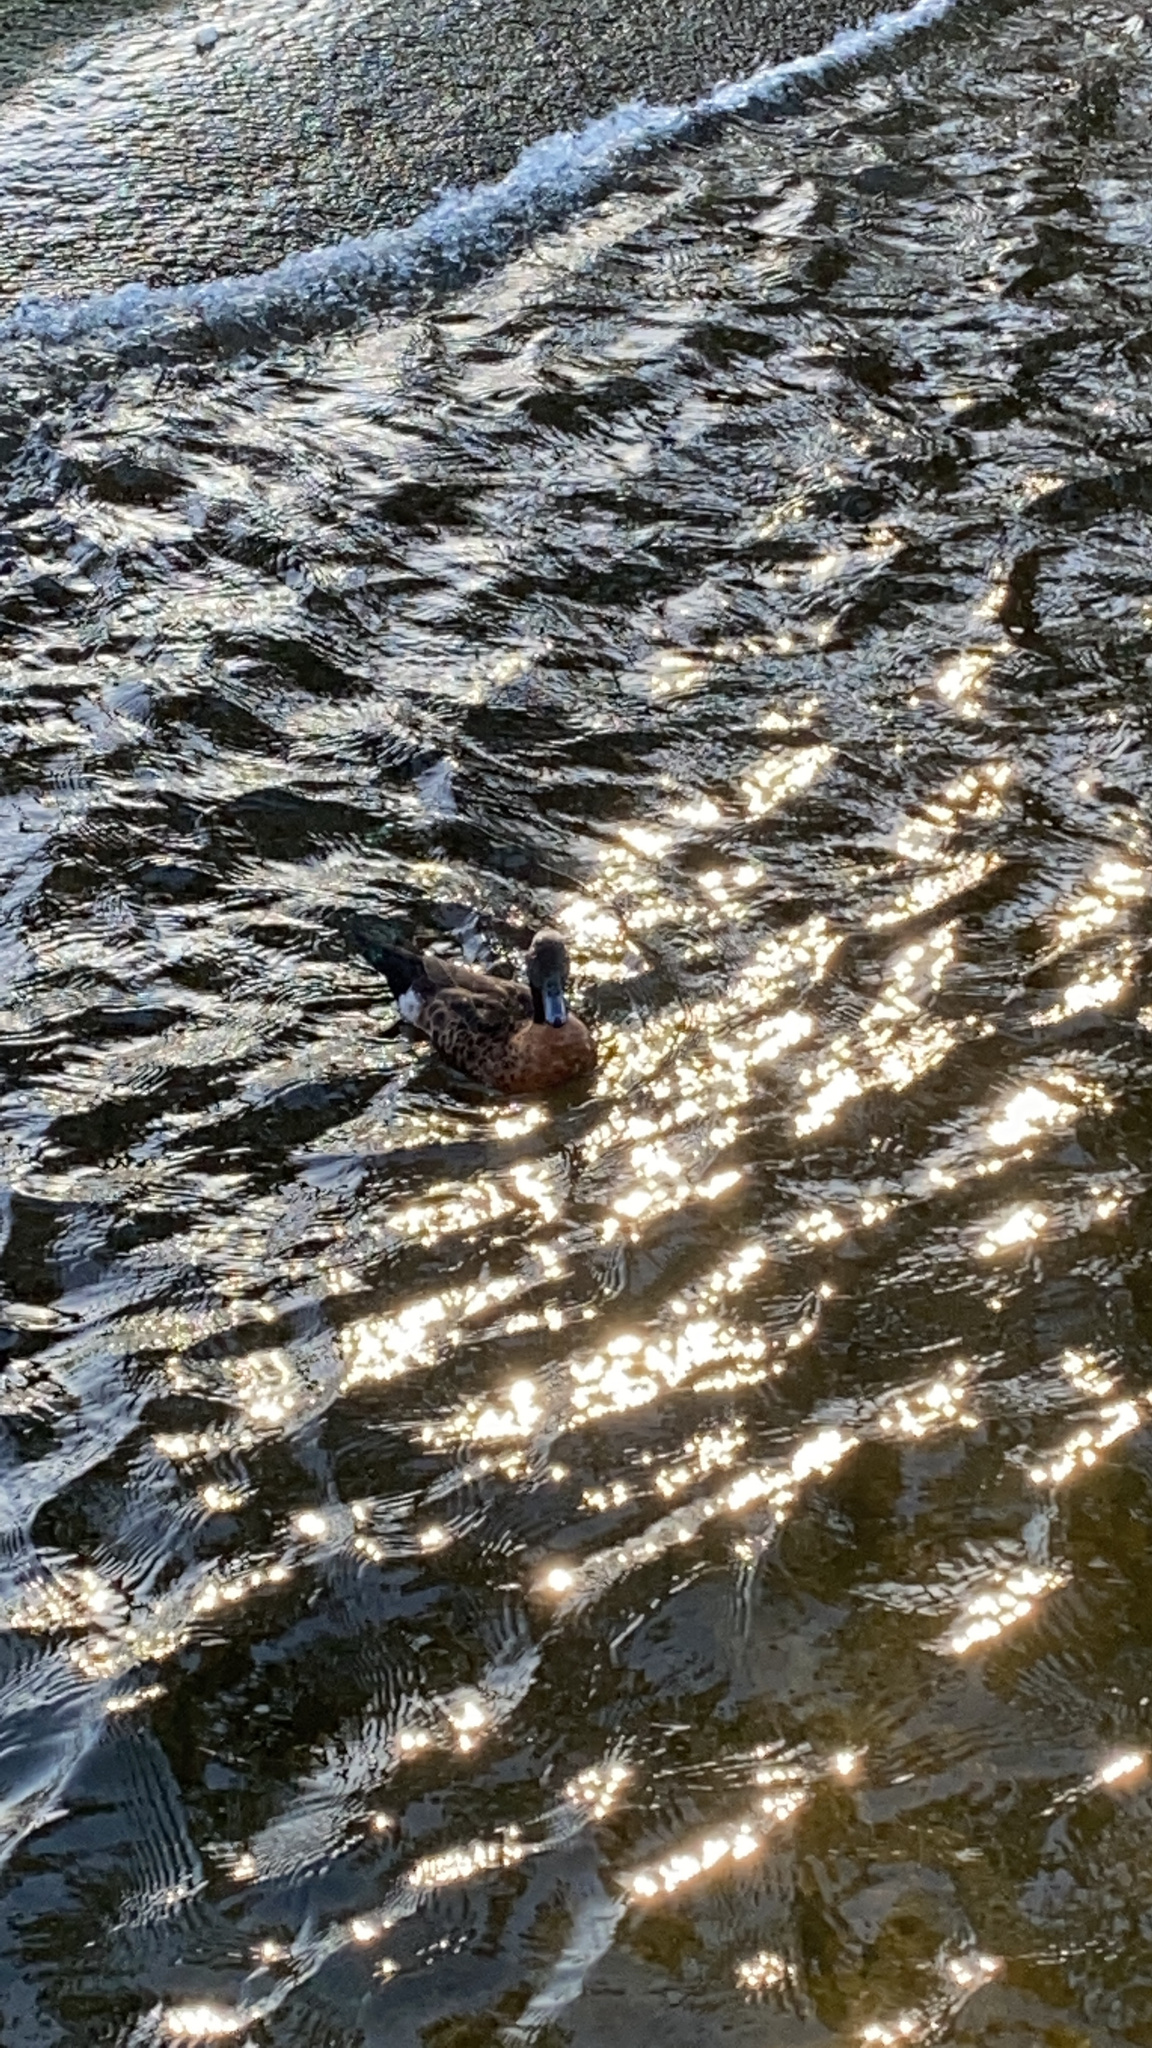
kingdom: Animalia
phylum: Chordata
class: Aves
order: Anseriformes
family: Anatidae
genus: Anas
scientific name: Anas castanea
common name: Chestnut teal
